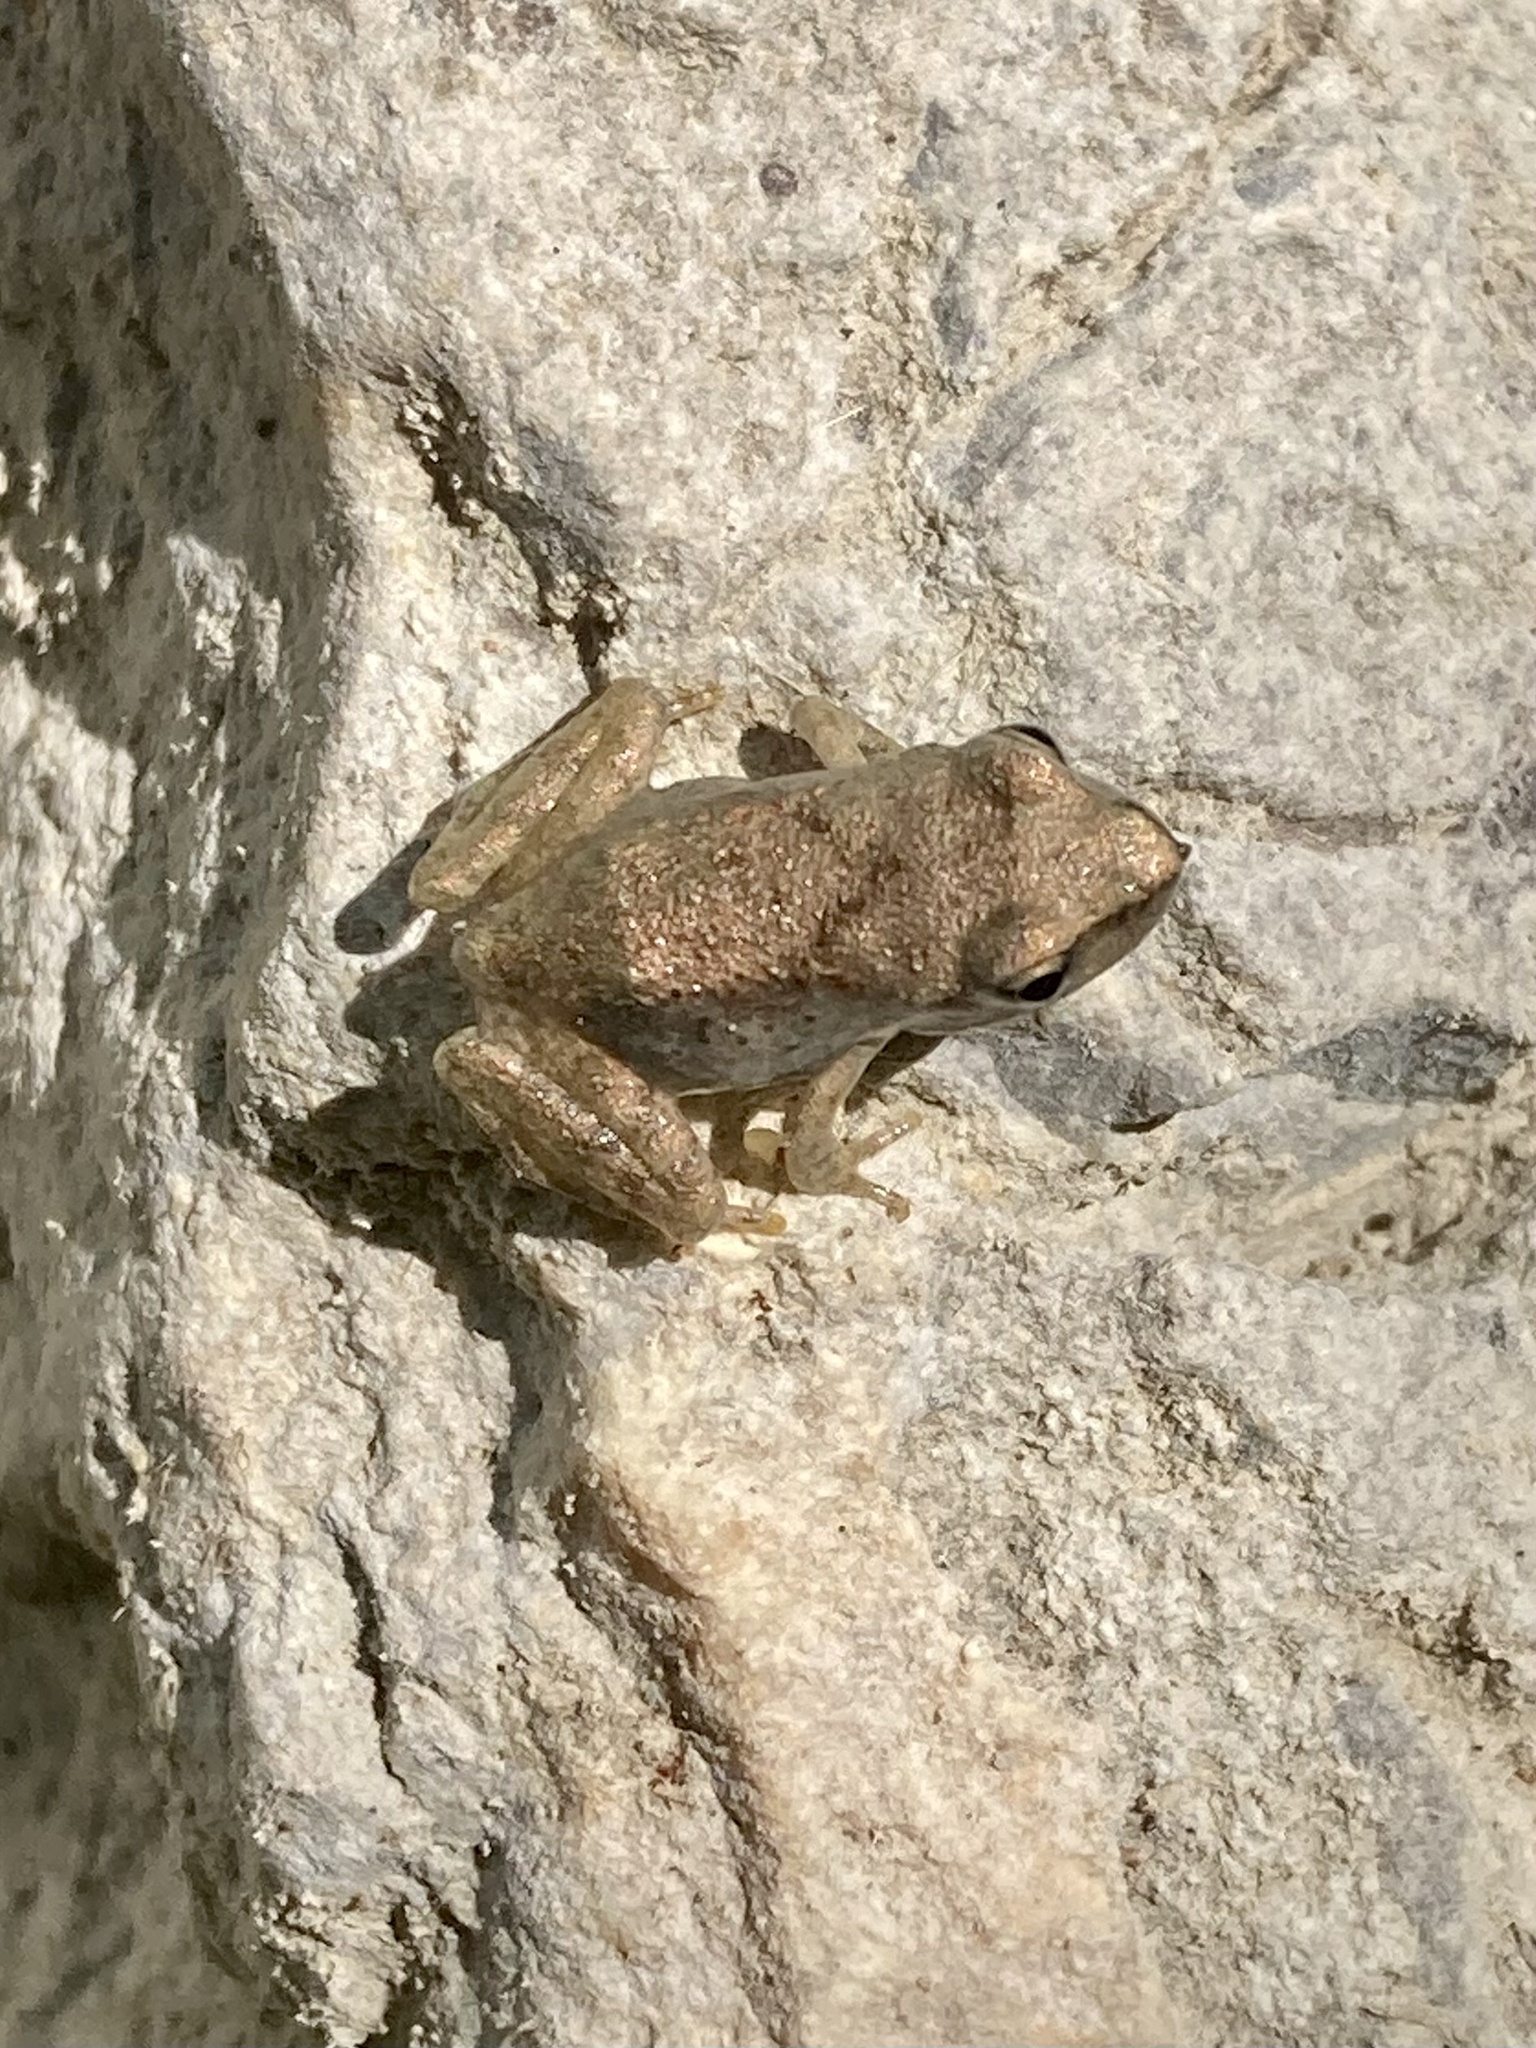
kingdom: Animalia
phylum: Chordata
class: Amphibia
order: Anura
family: Ranidae
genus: Rana
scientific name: Rana italica
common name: Italian stream frog
